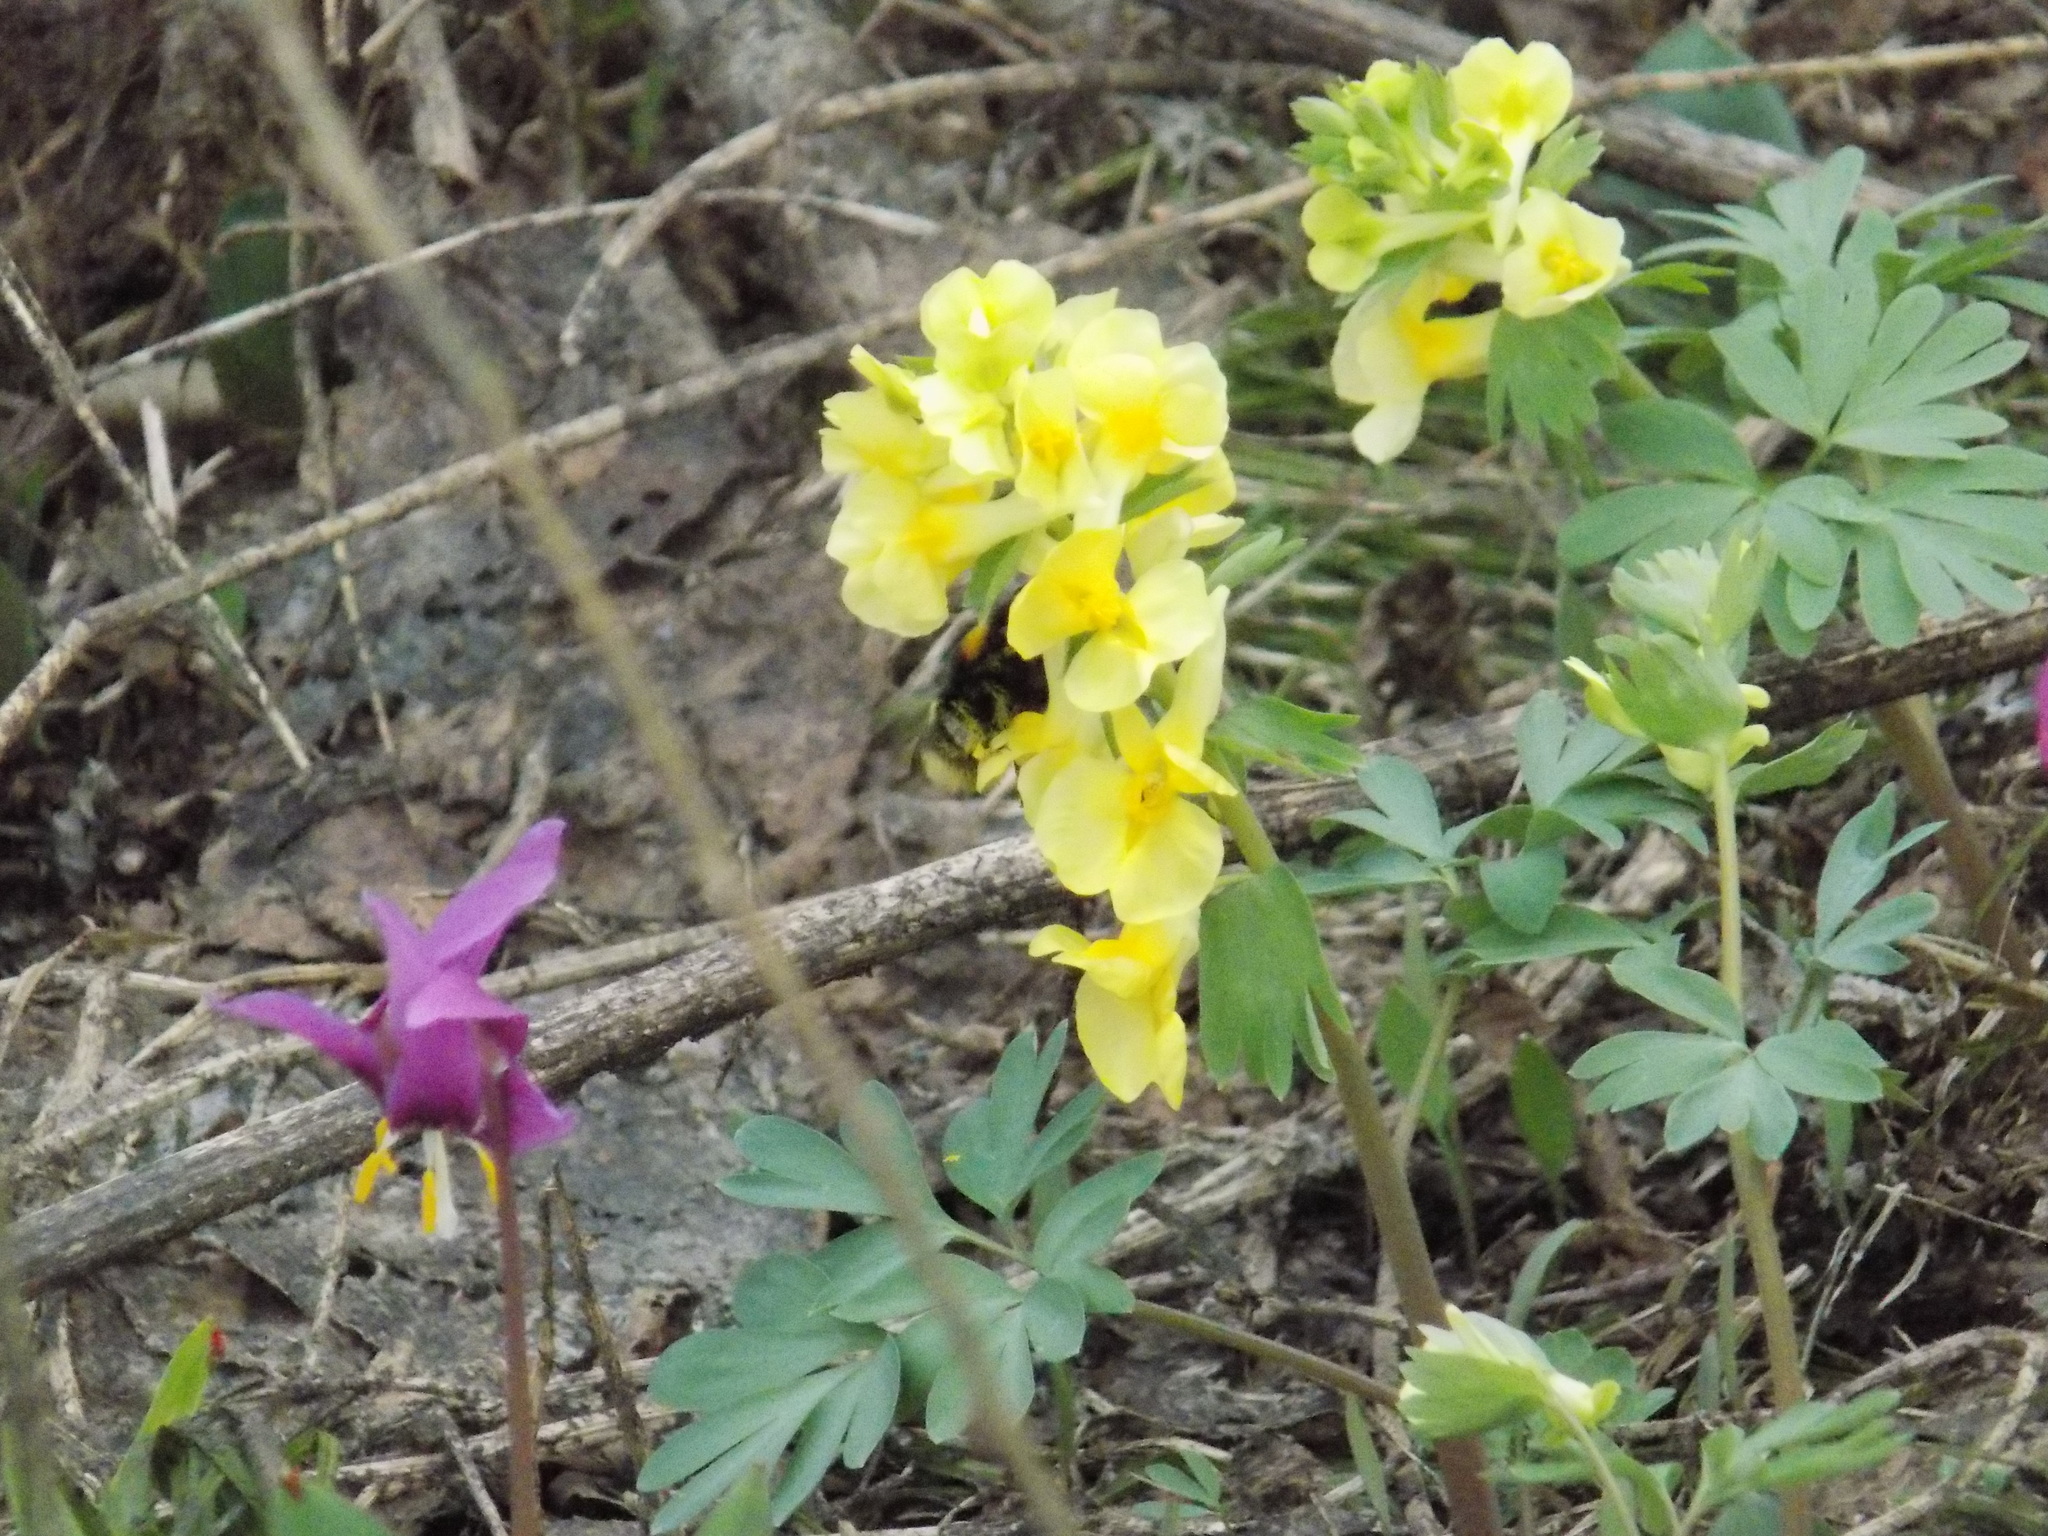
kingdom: Animalia
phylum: Arthropoda
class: Insecta
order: Hymenoptera
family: Apidae
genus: Bombus
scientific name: Bombus
